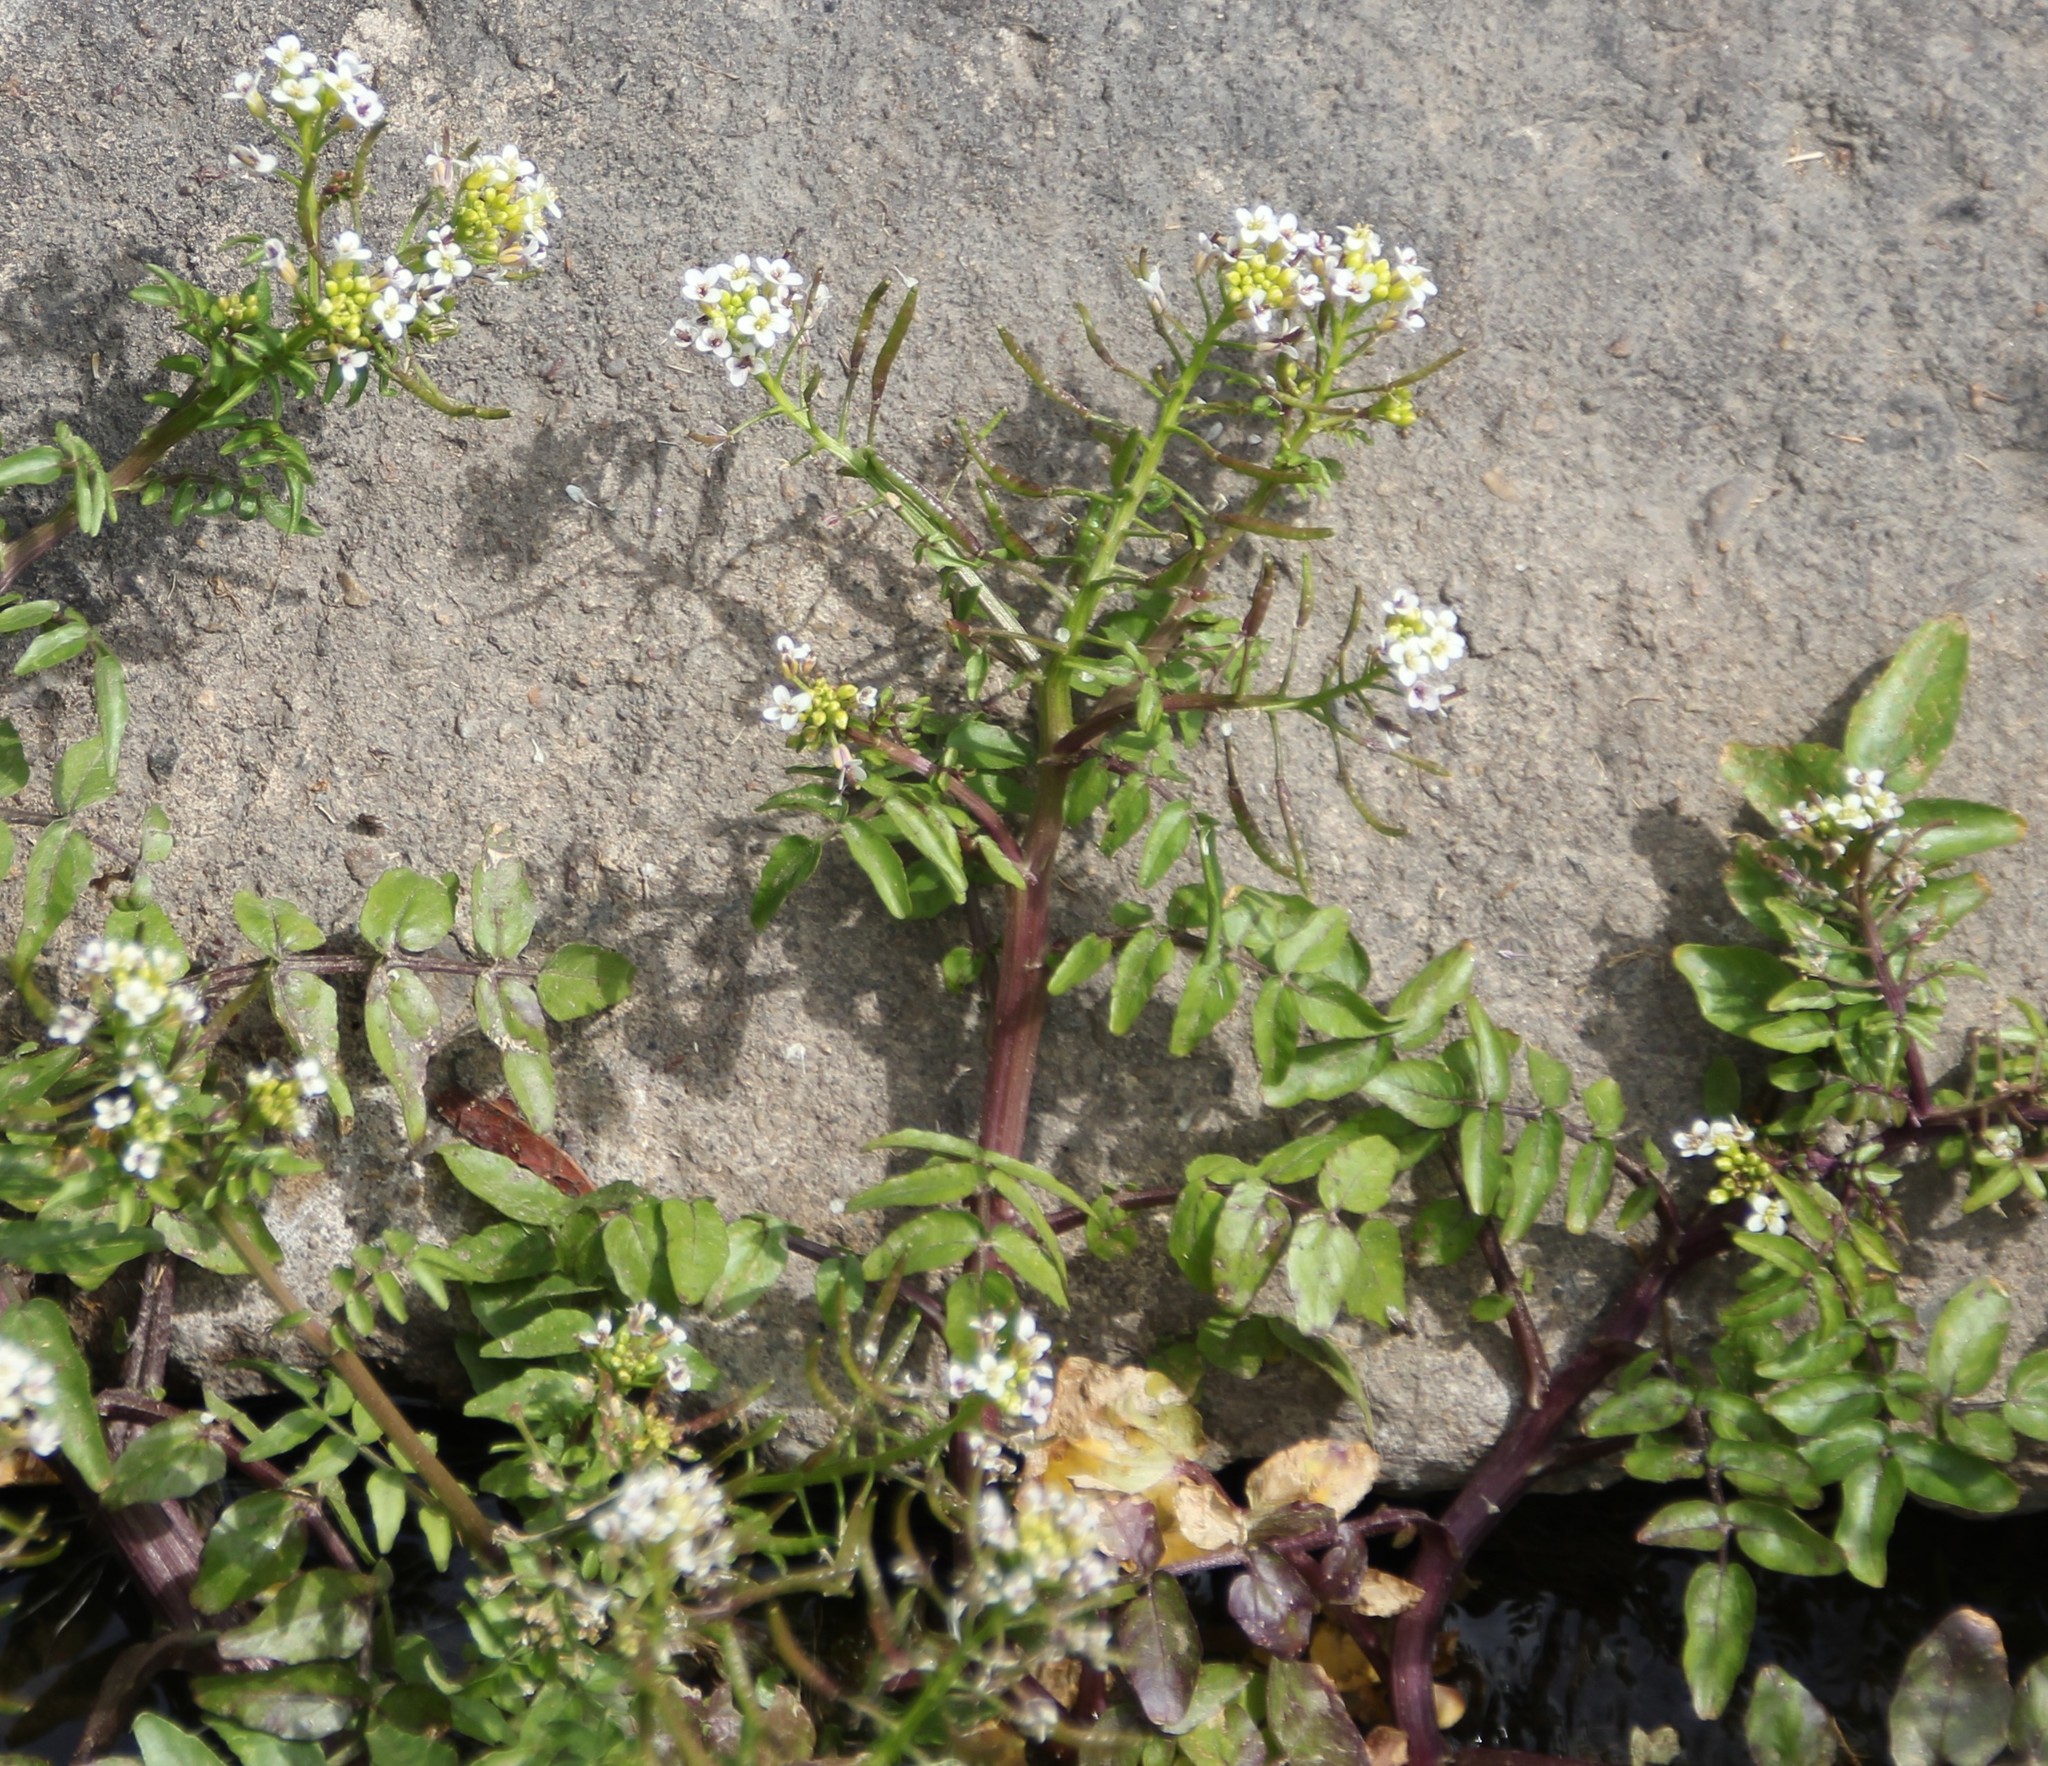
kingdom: Plantae
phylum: Tracheophyta
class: Magnoliopsida
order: Brassicales
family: Brassicaceae
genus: Nasturtium
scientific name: Nasturtium officinale
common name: Watercress
